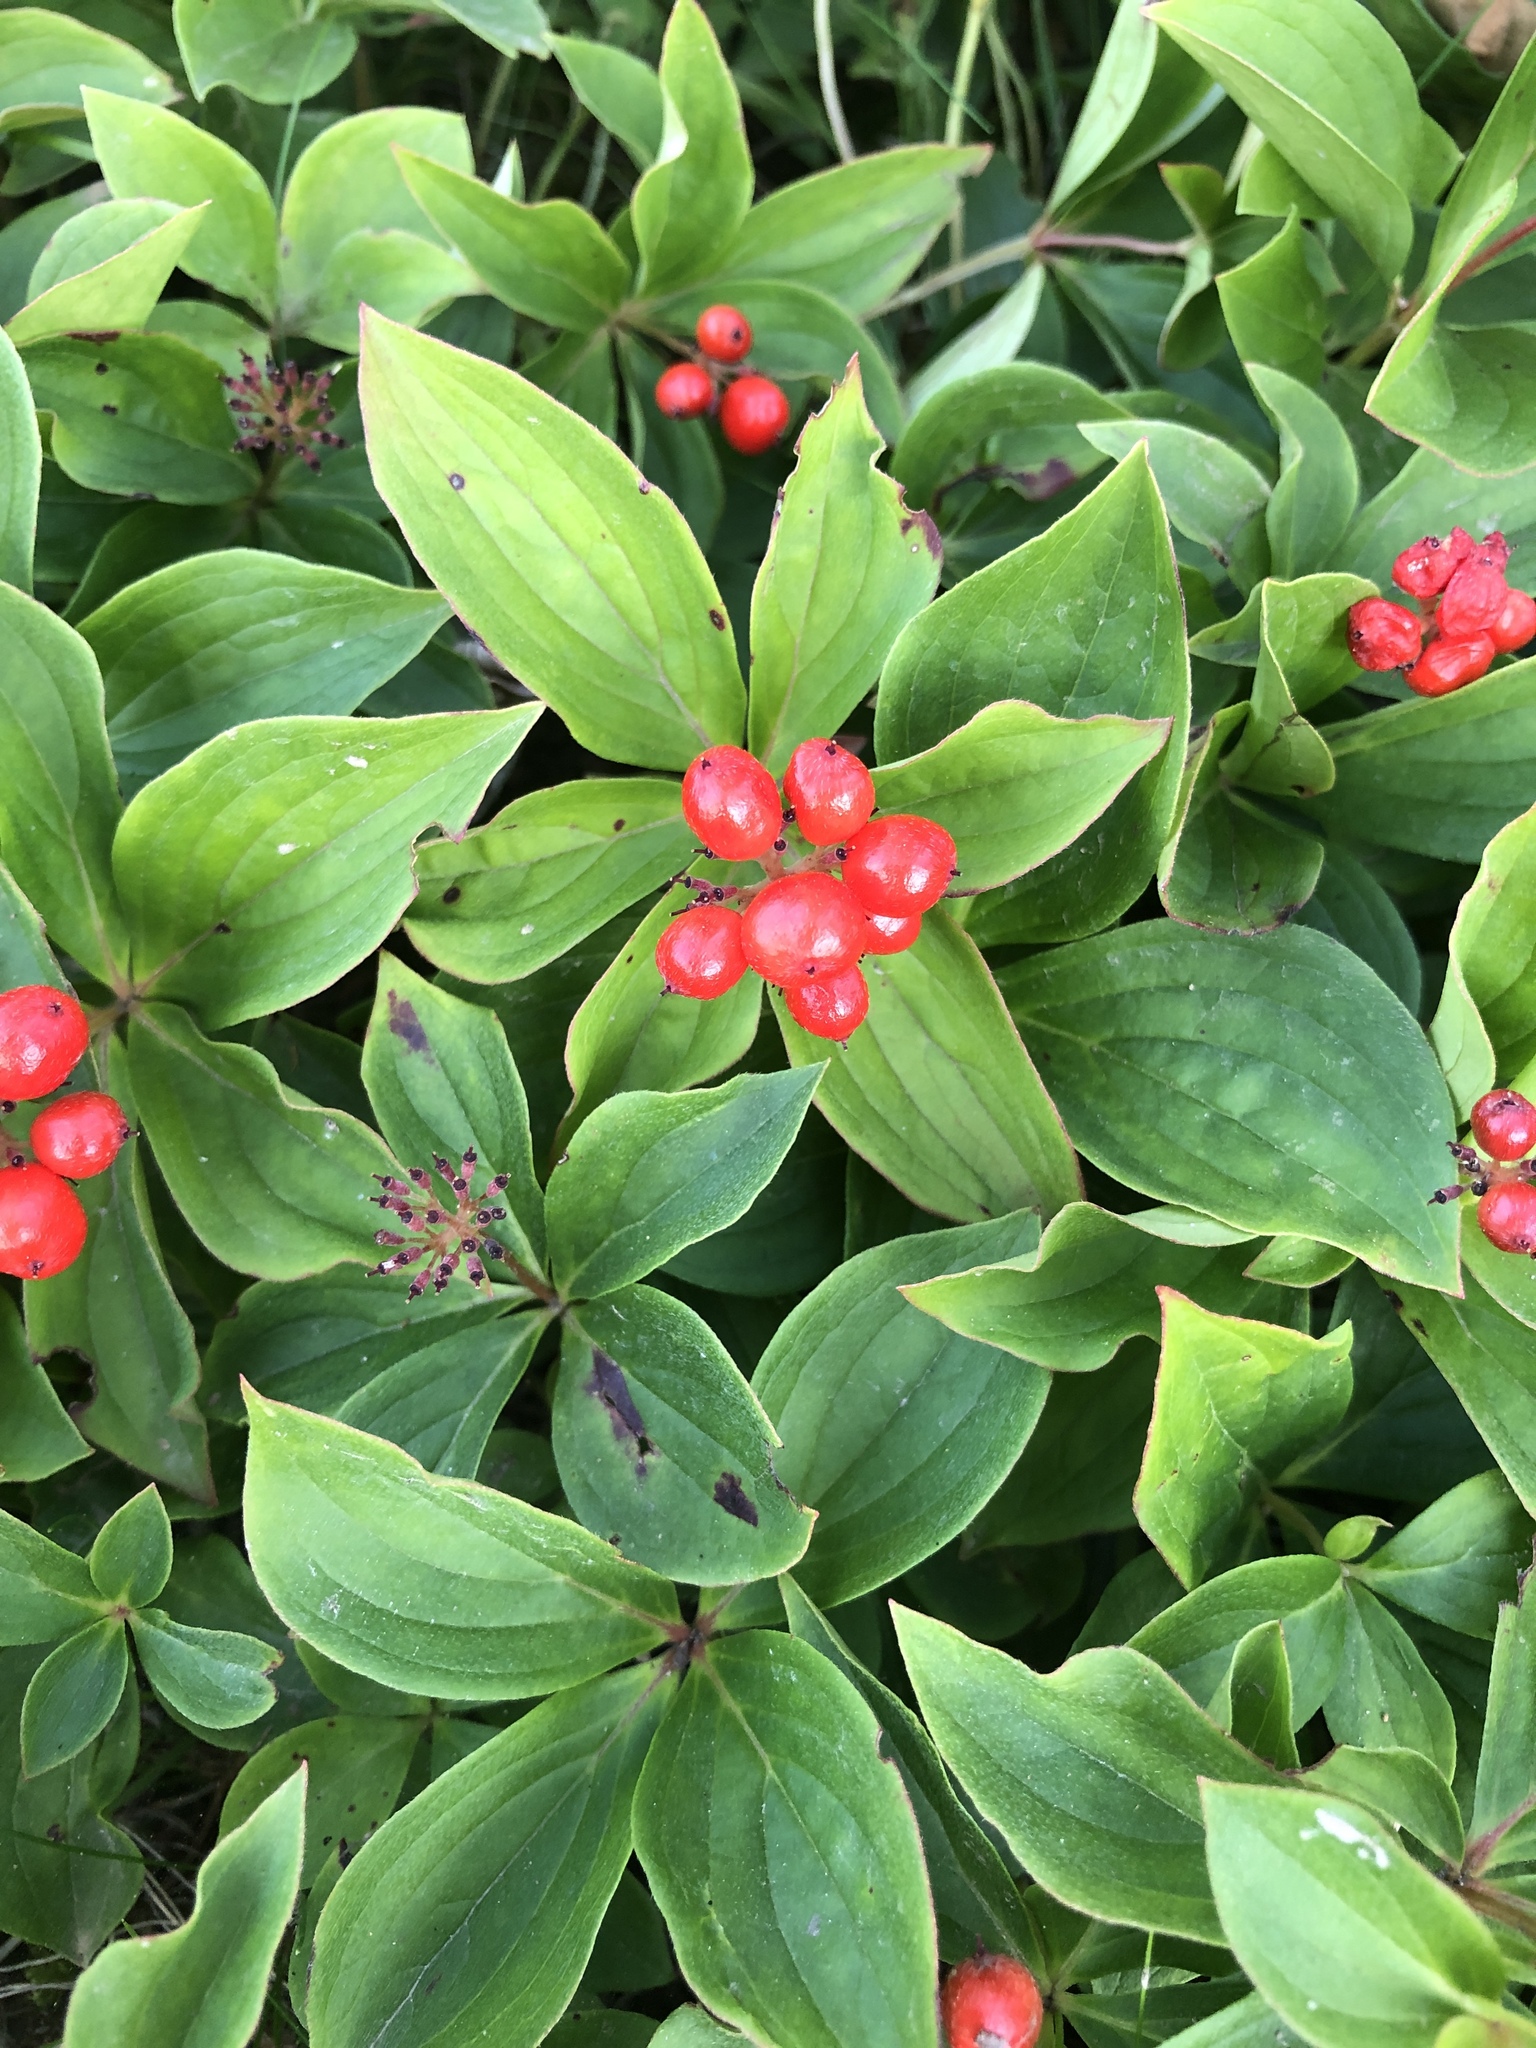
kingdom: Plantae
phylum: Tracheophyta
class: Magnoliopsida
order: Cornales
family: Cornaceae
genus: Cornus
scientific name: Cornus canadensis
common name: Creeping dogwood
